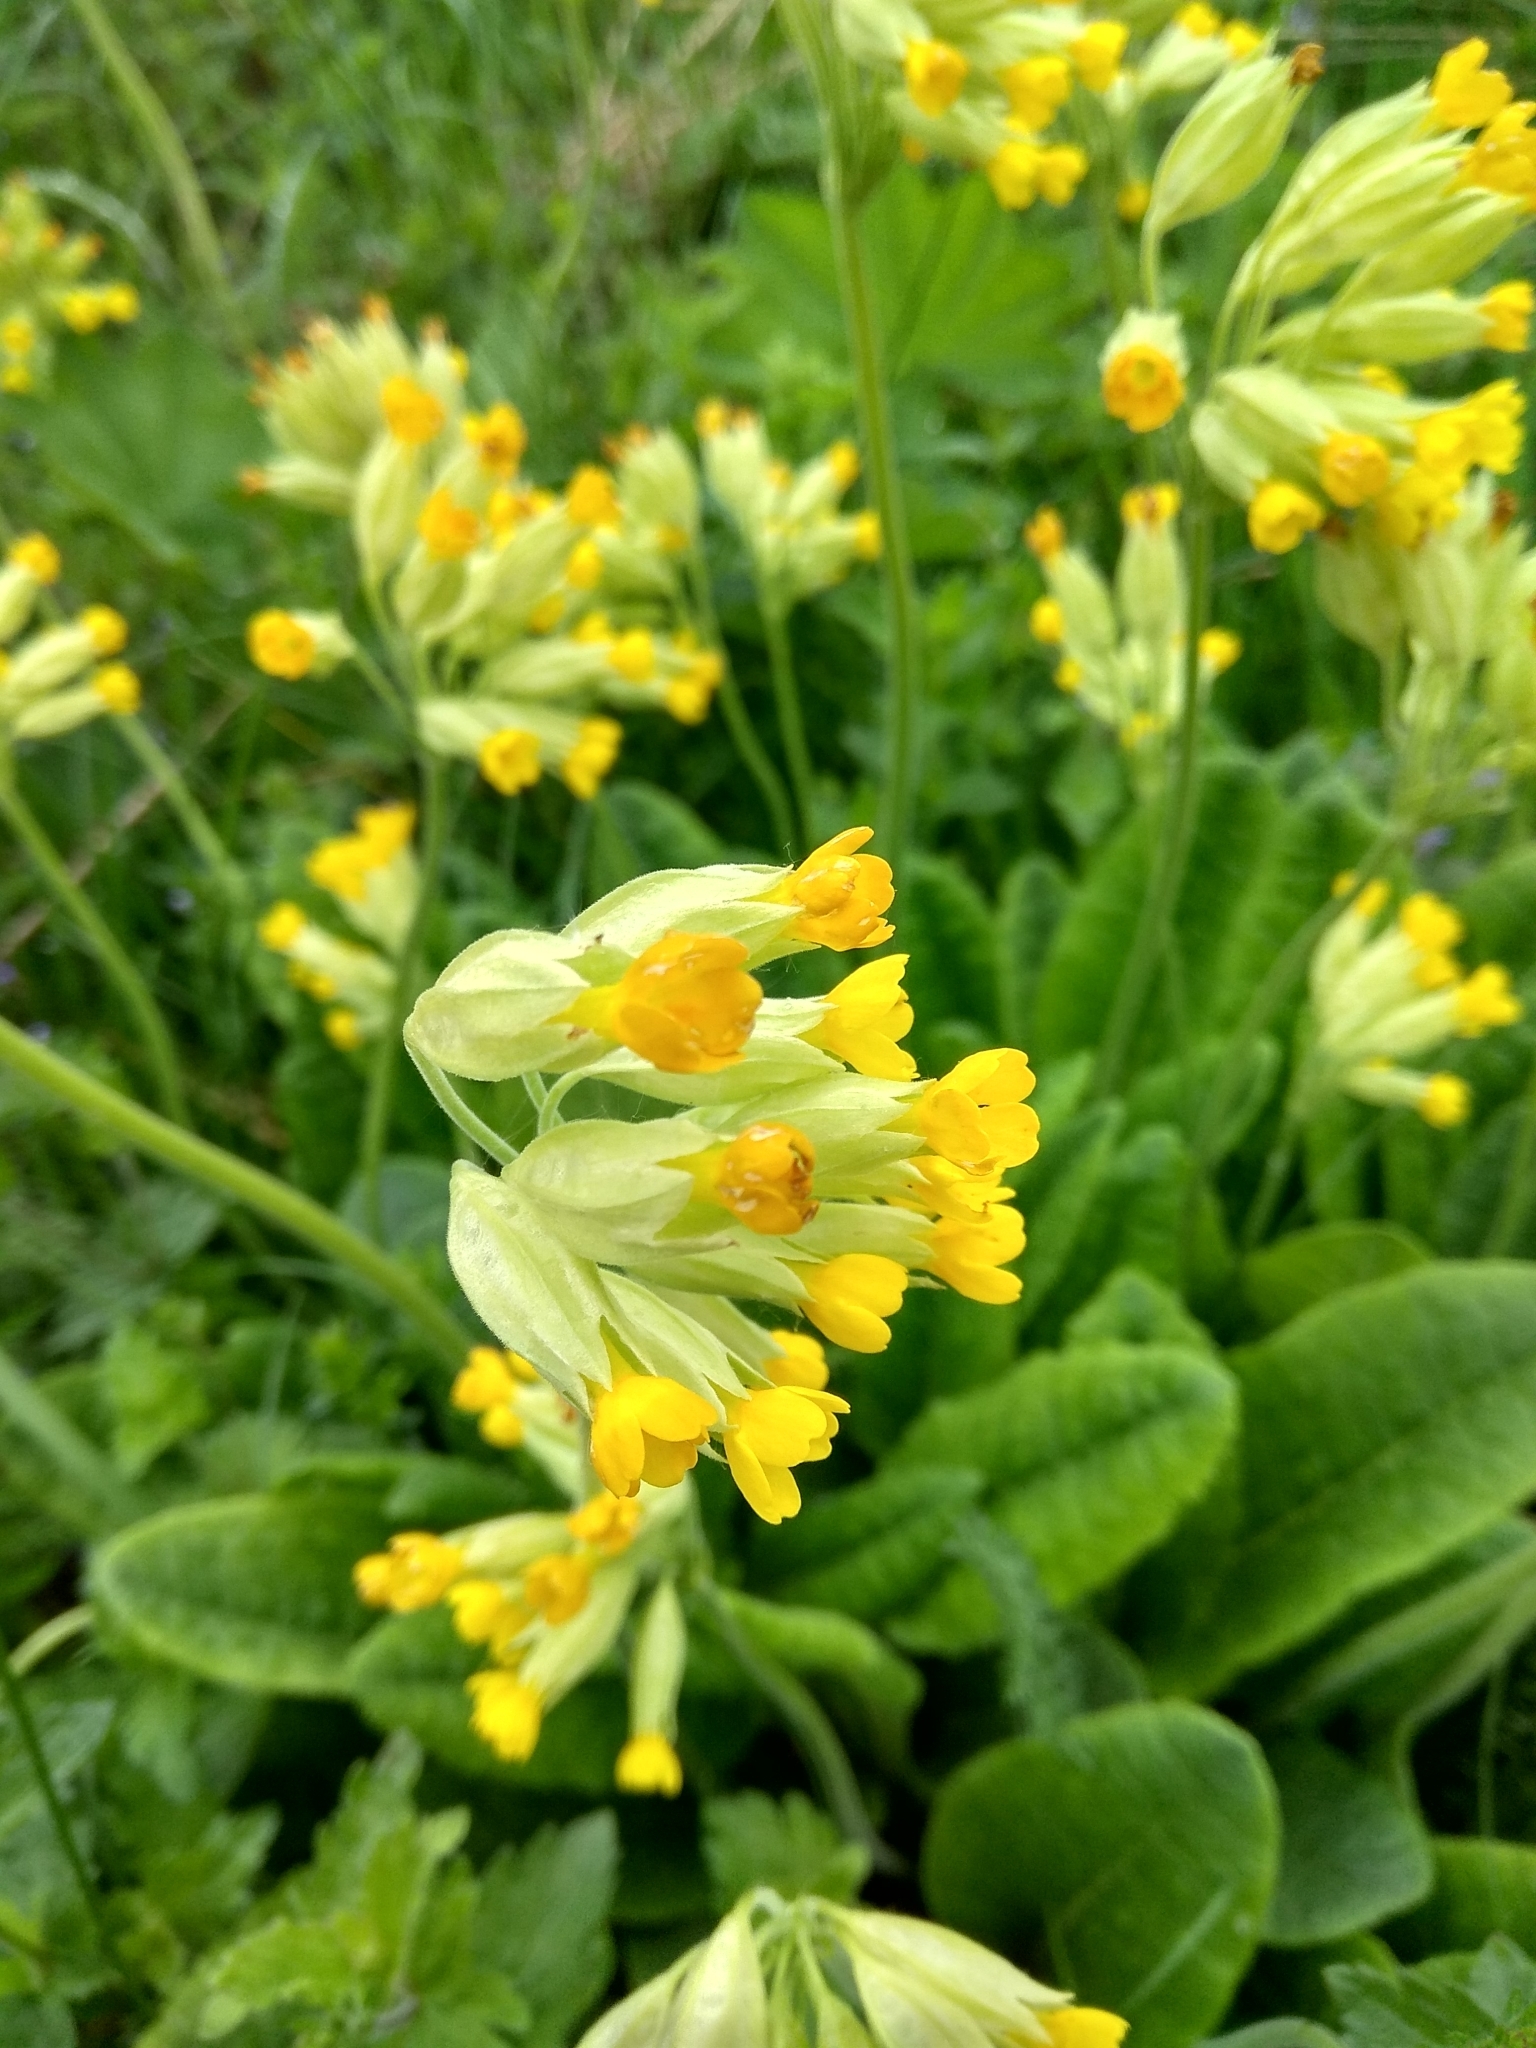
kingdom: Plantae
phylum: Tracheophyta
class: Magnoliopsida
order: Ericales
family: Primulaceae
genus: Primula
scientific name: Primula veris
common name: Cowslip
